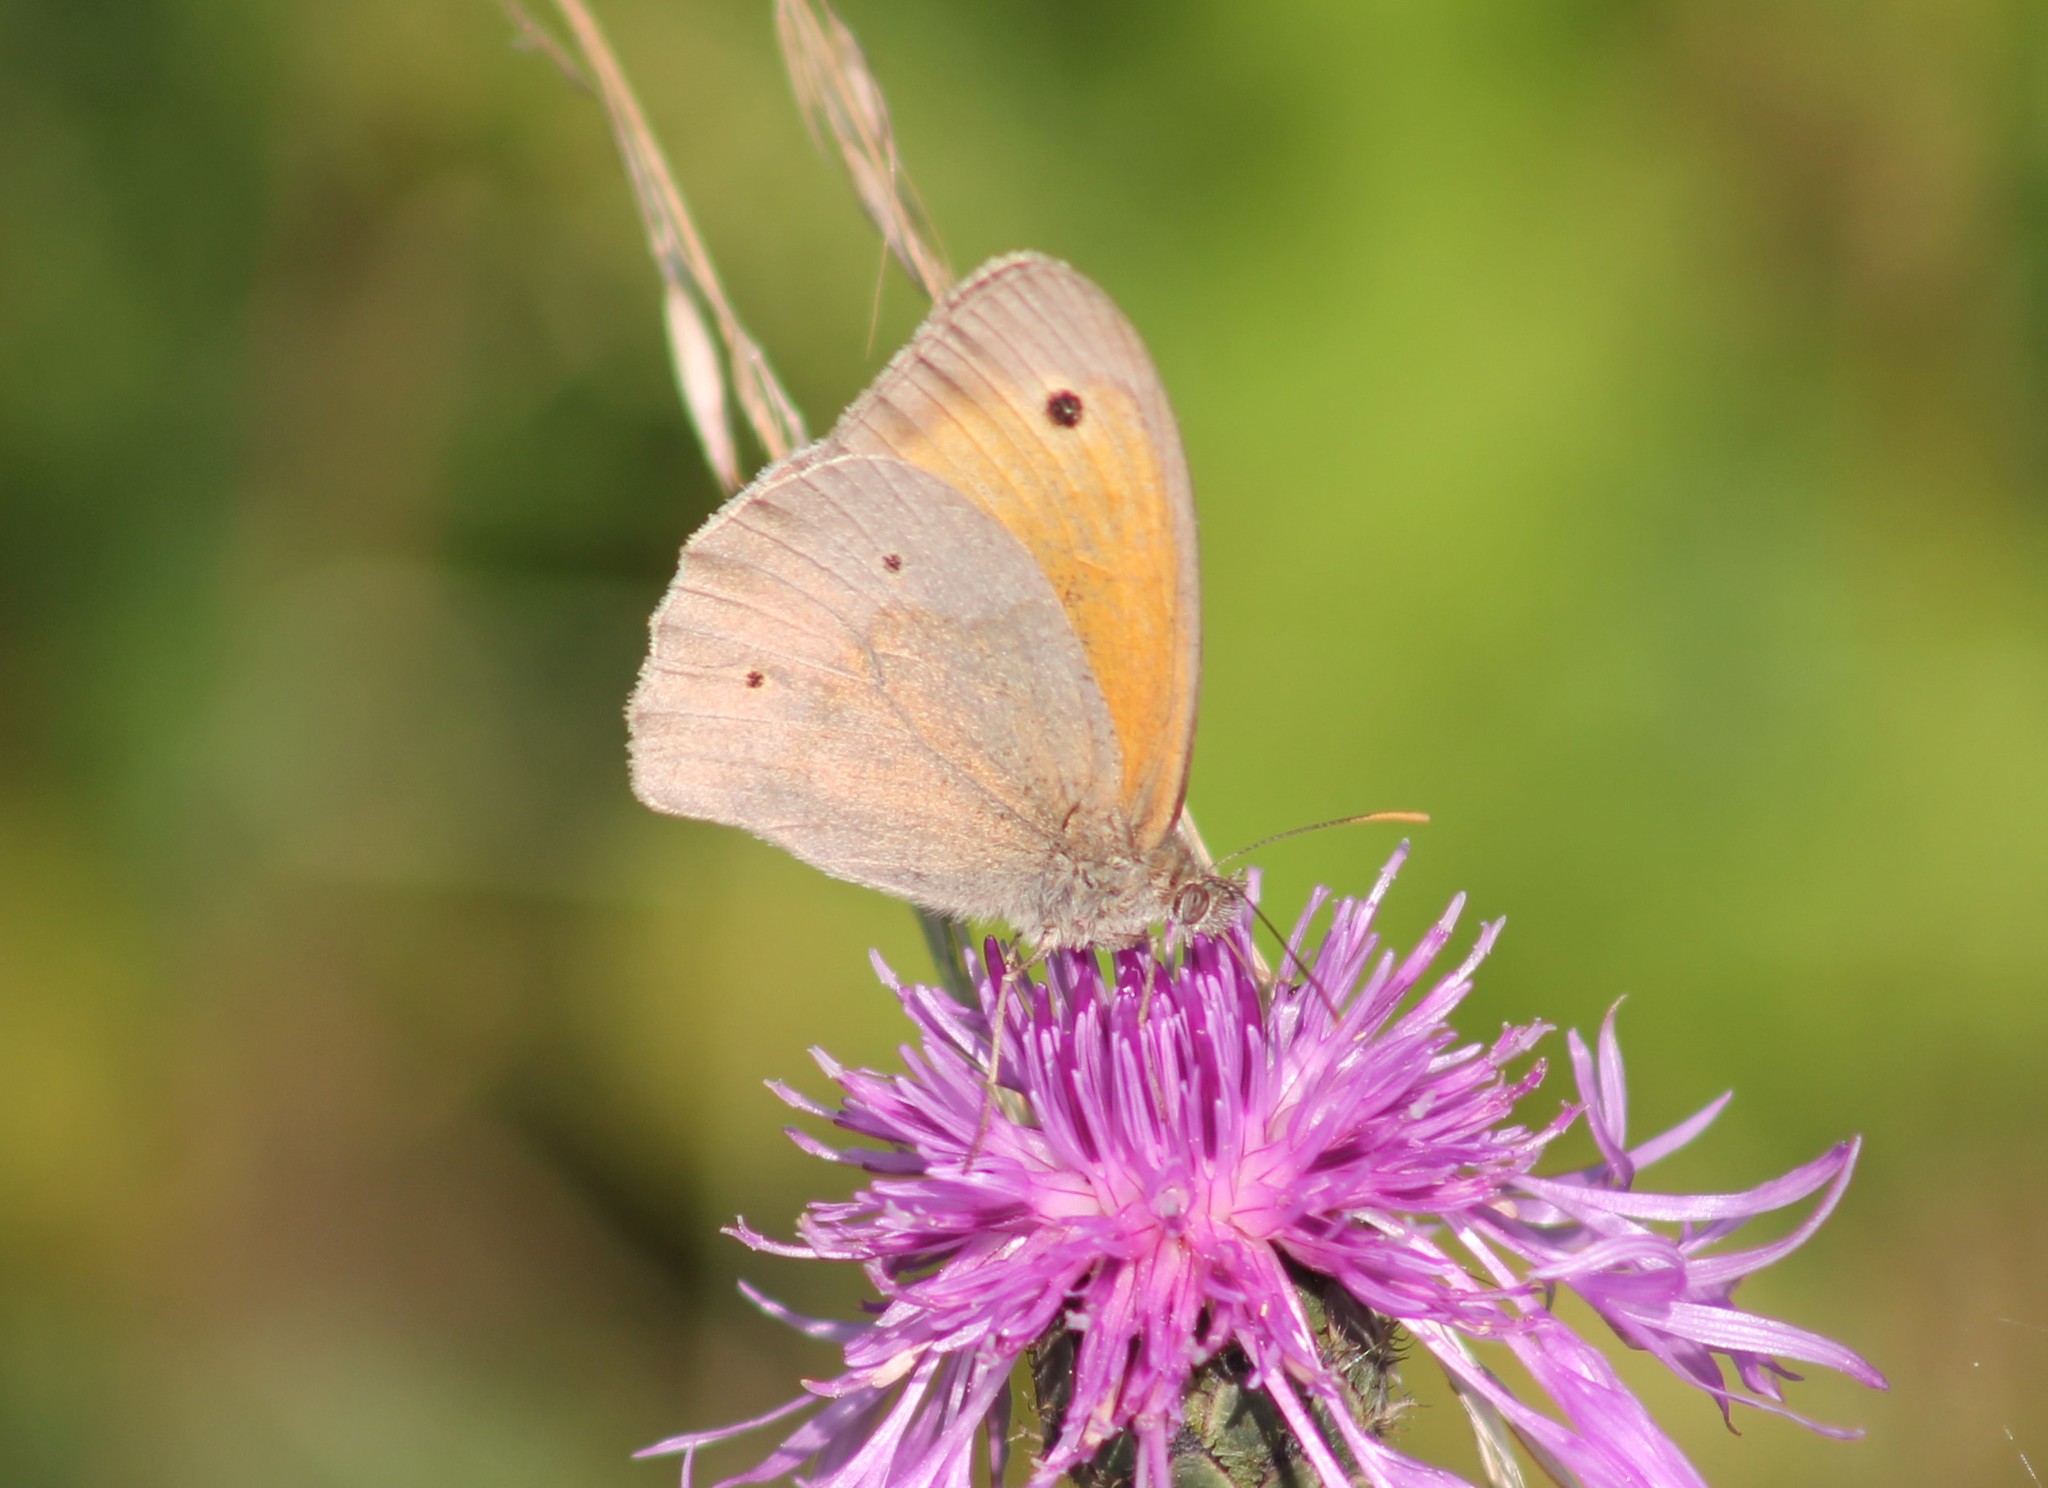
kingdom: Animalia
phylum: Arthropoda
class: Insecta
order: Lepidoptera
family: Nymphalidae
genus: Maniola
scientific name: Maniola jurtina
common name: Meadow brown
